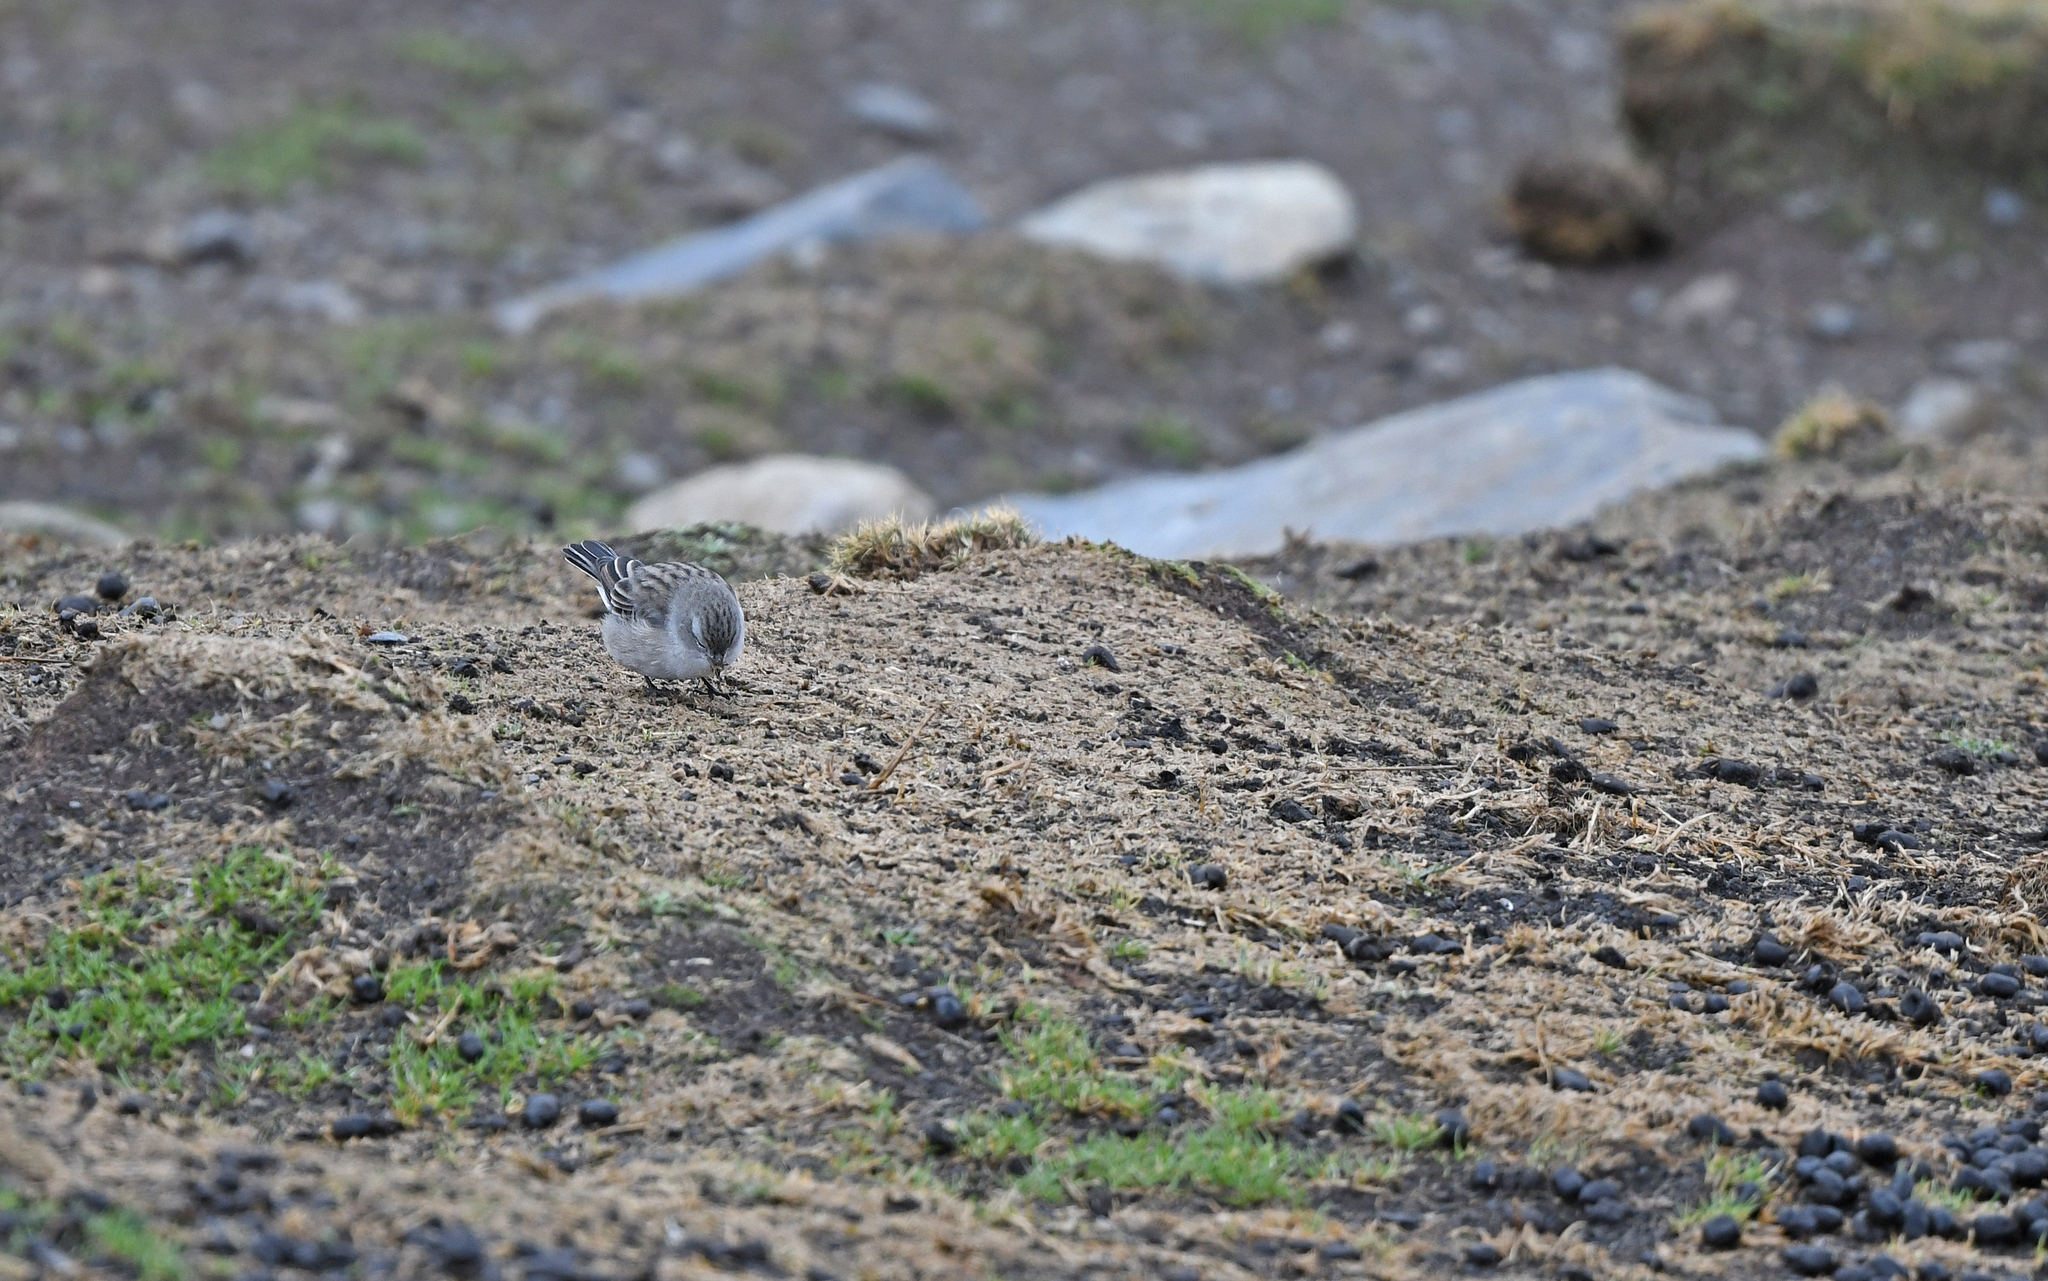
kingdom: Animalia
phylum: Chordata
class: Aves
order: Passeriformes
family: Thraupidae
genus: Geospizopsis
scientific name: Geospizopsis plebejus
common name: Ash-breasted sierra-finch
